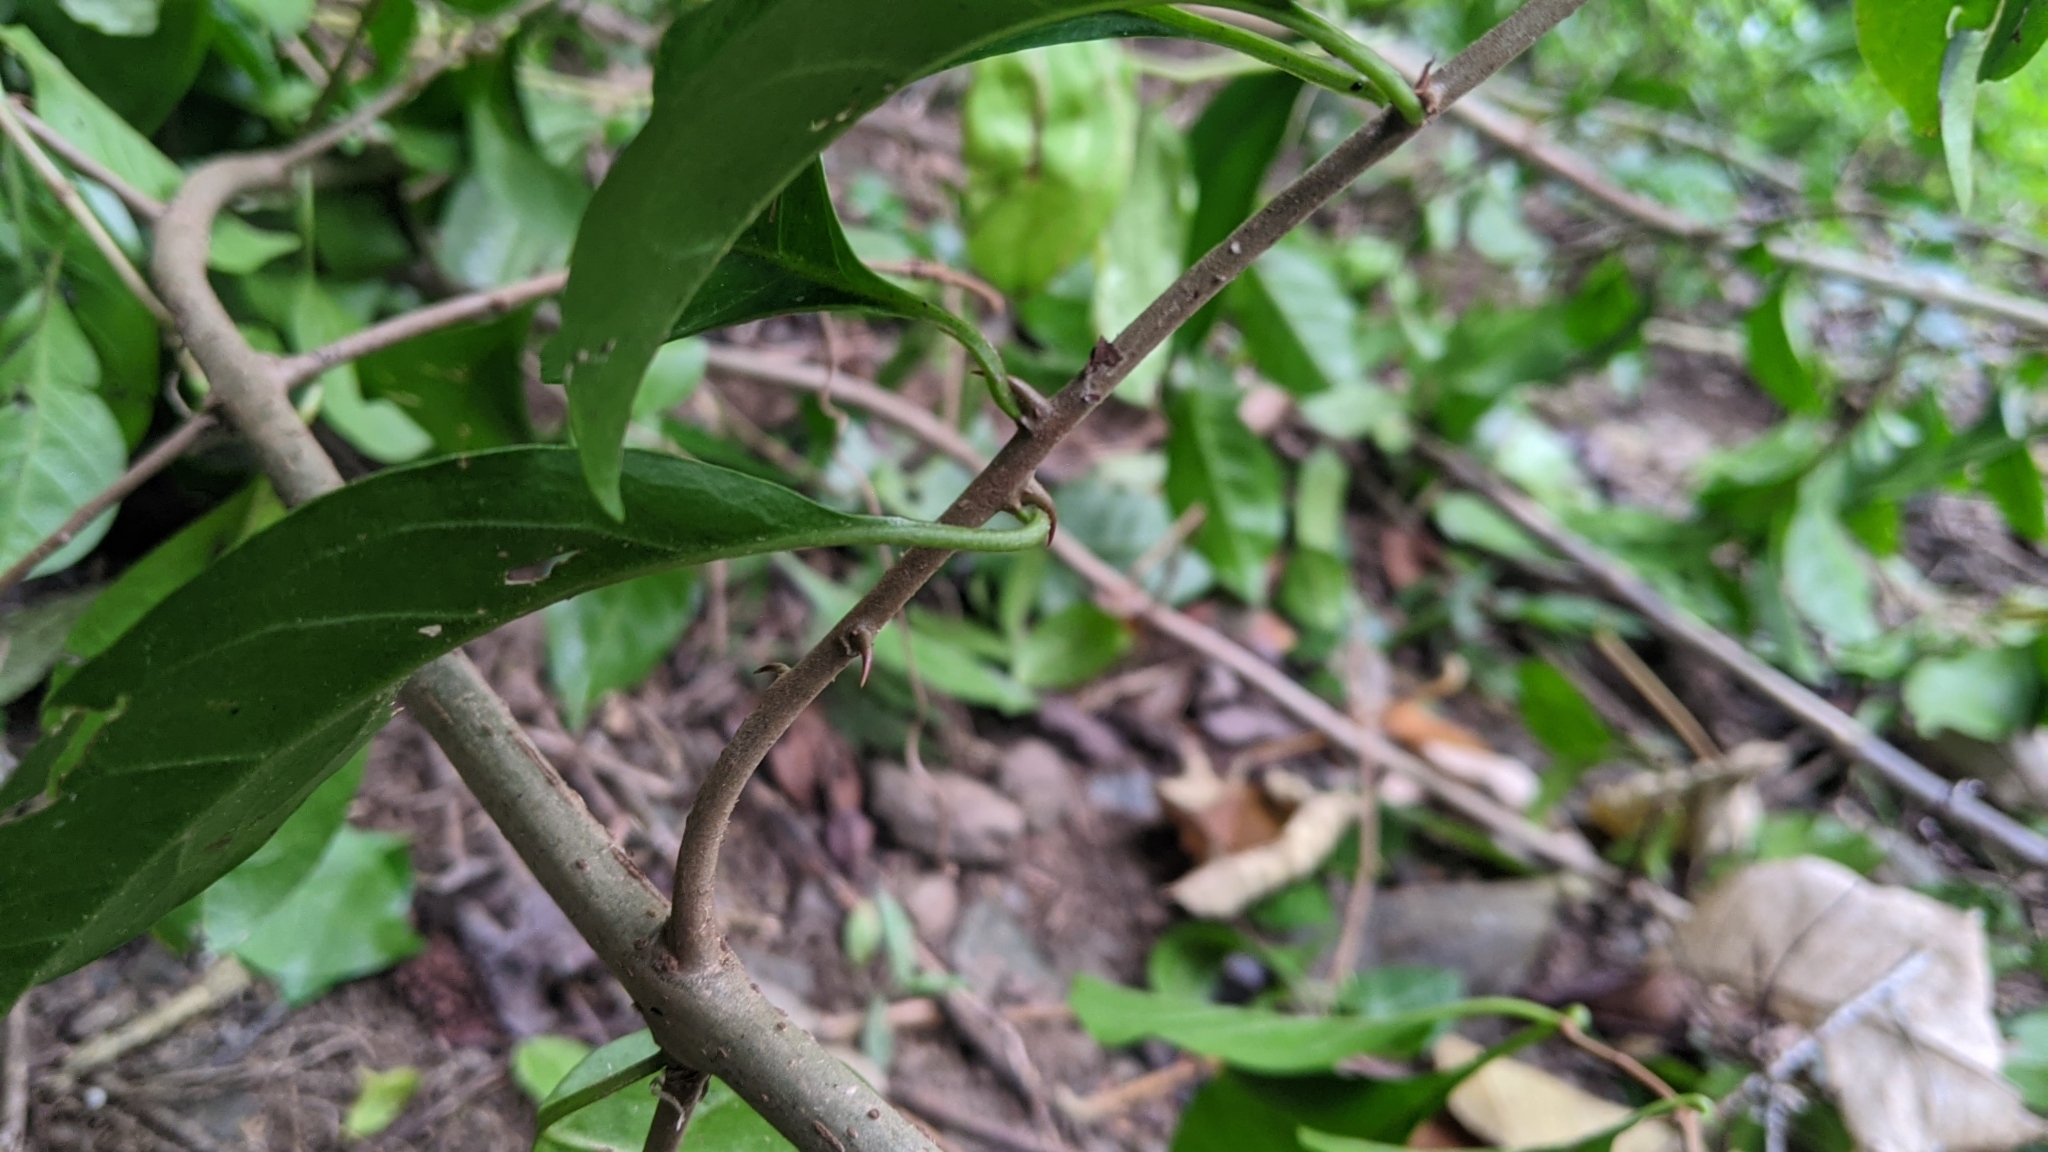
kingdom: Plantae
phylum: Tracheophyta
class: Magnoliopsida
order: Caryophyllales
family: Nyctaginaceae
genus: Pisonia
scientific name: Pisonia aculeata
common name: Cockspur vine
